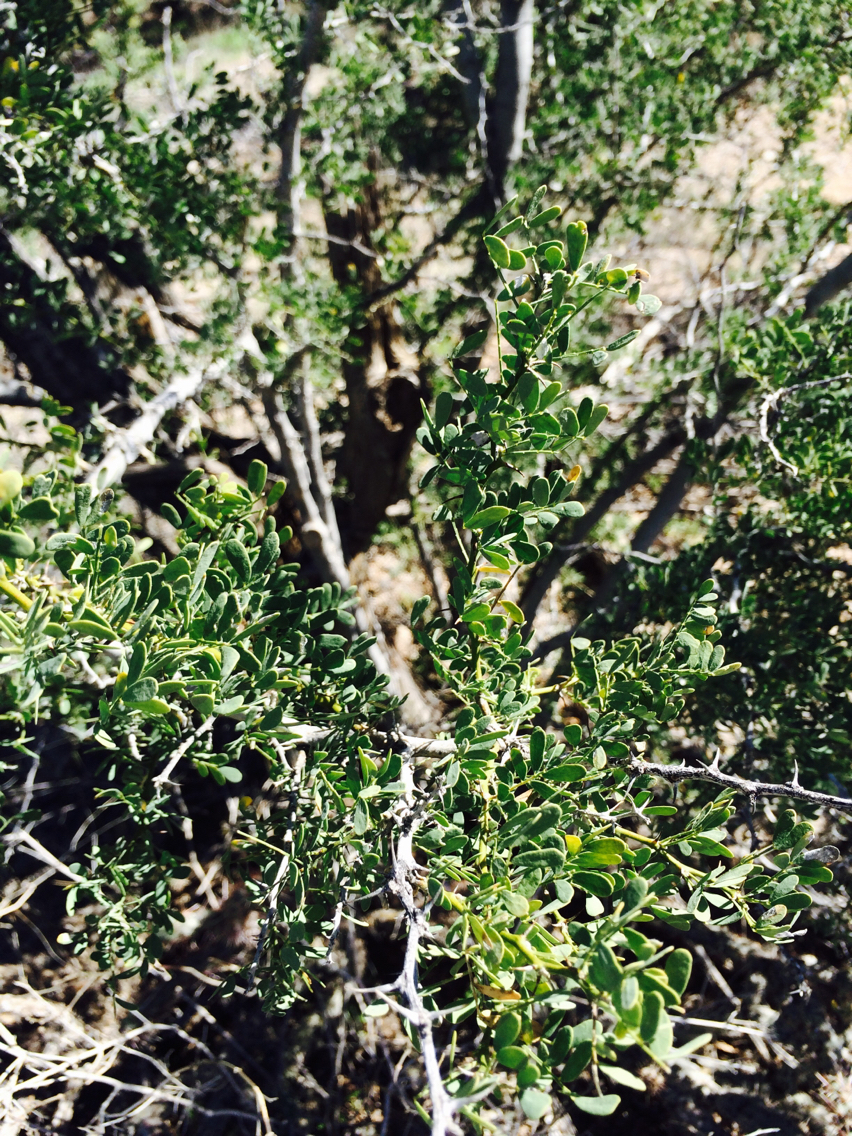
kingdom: Plantae
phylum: Tracheophyta
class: Magnoliopsida
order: Fabales
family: Fabaceae
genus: Olneya
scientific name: Olneya tesota
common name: Desert ironwood
